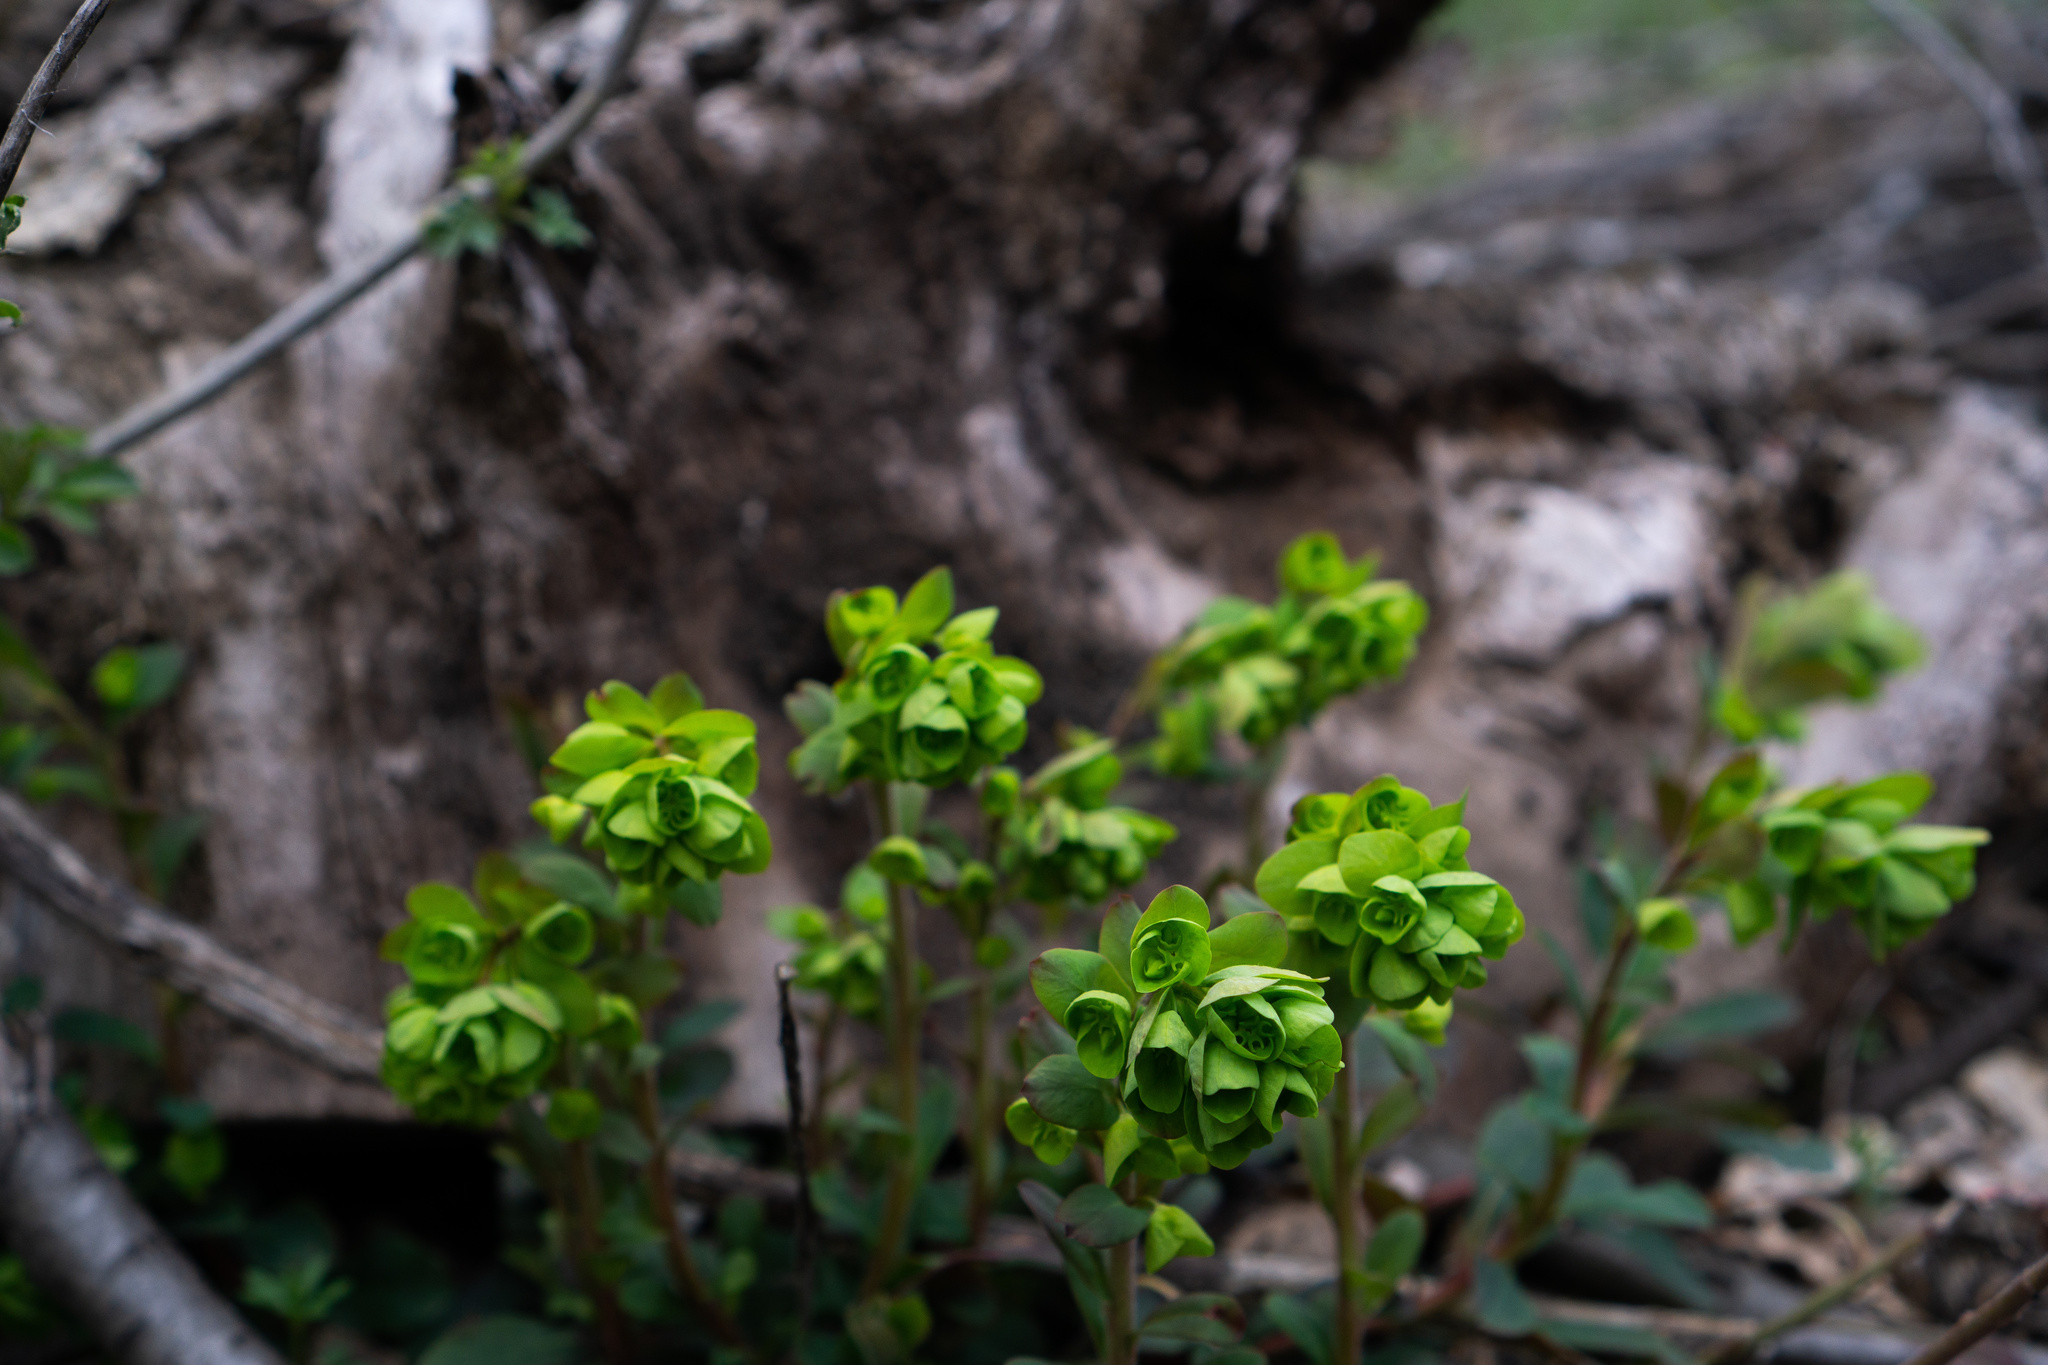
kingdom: Plantae
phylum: Tracheophyta
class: Magnoliopsida
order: Malpighiales
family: Euphorbiaceae
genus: Euphorbia
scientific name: Euphorbia amygdaloides
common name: Wood spurge
